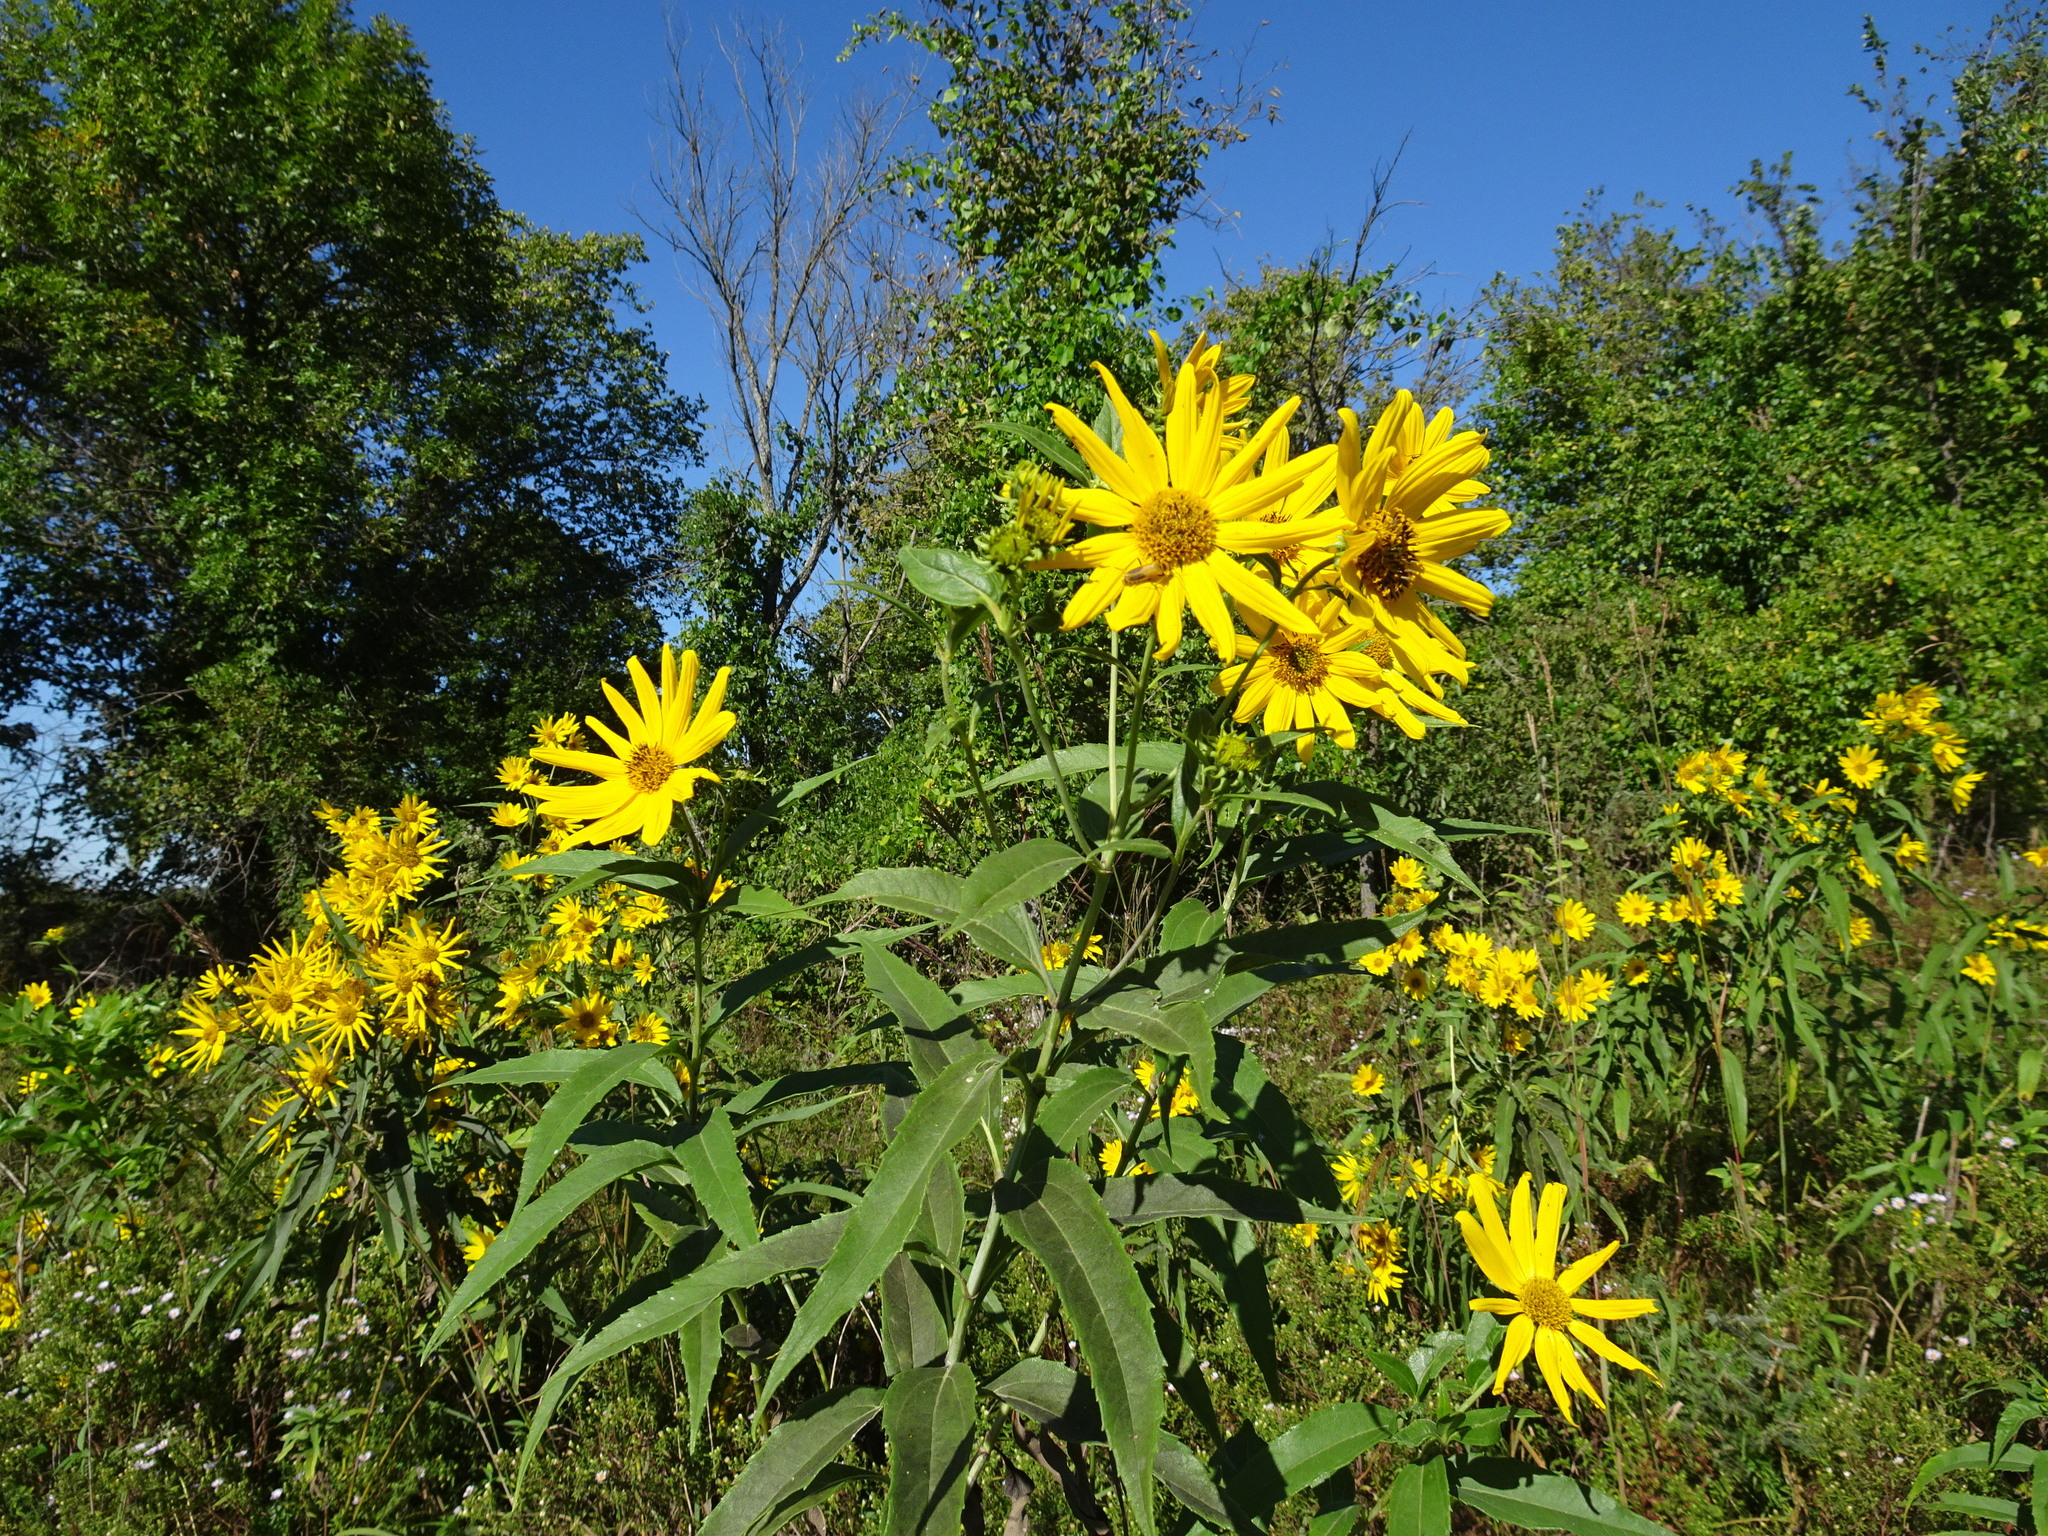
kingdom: Plantae
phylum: Tracheophyta
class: Magnoliopsida
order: Asterales
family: Asteraceae
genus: Helianthus
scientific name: Helianthus grosseserratus
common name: Sawtooth sunflower
